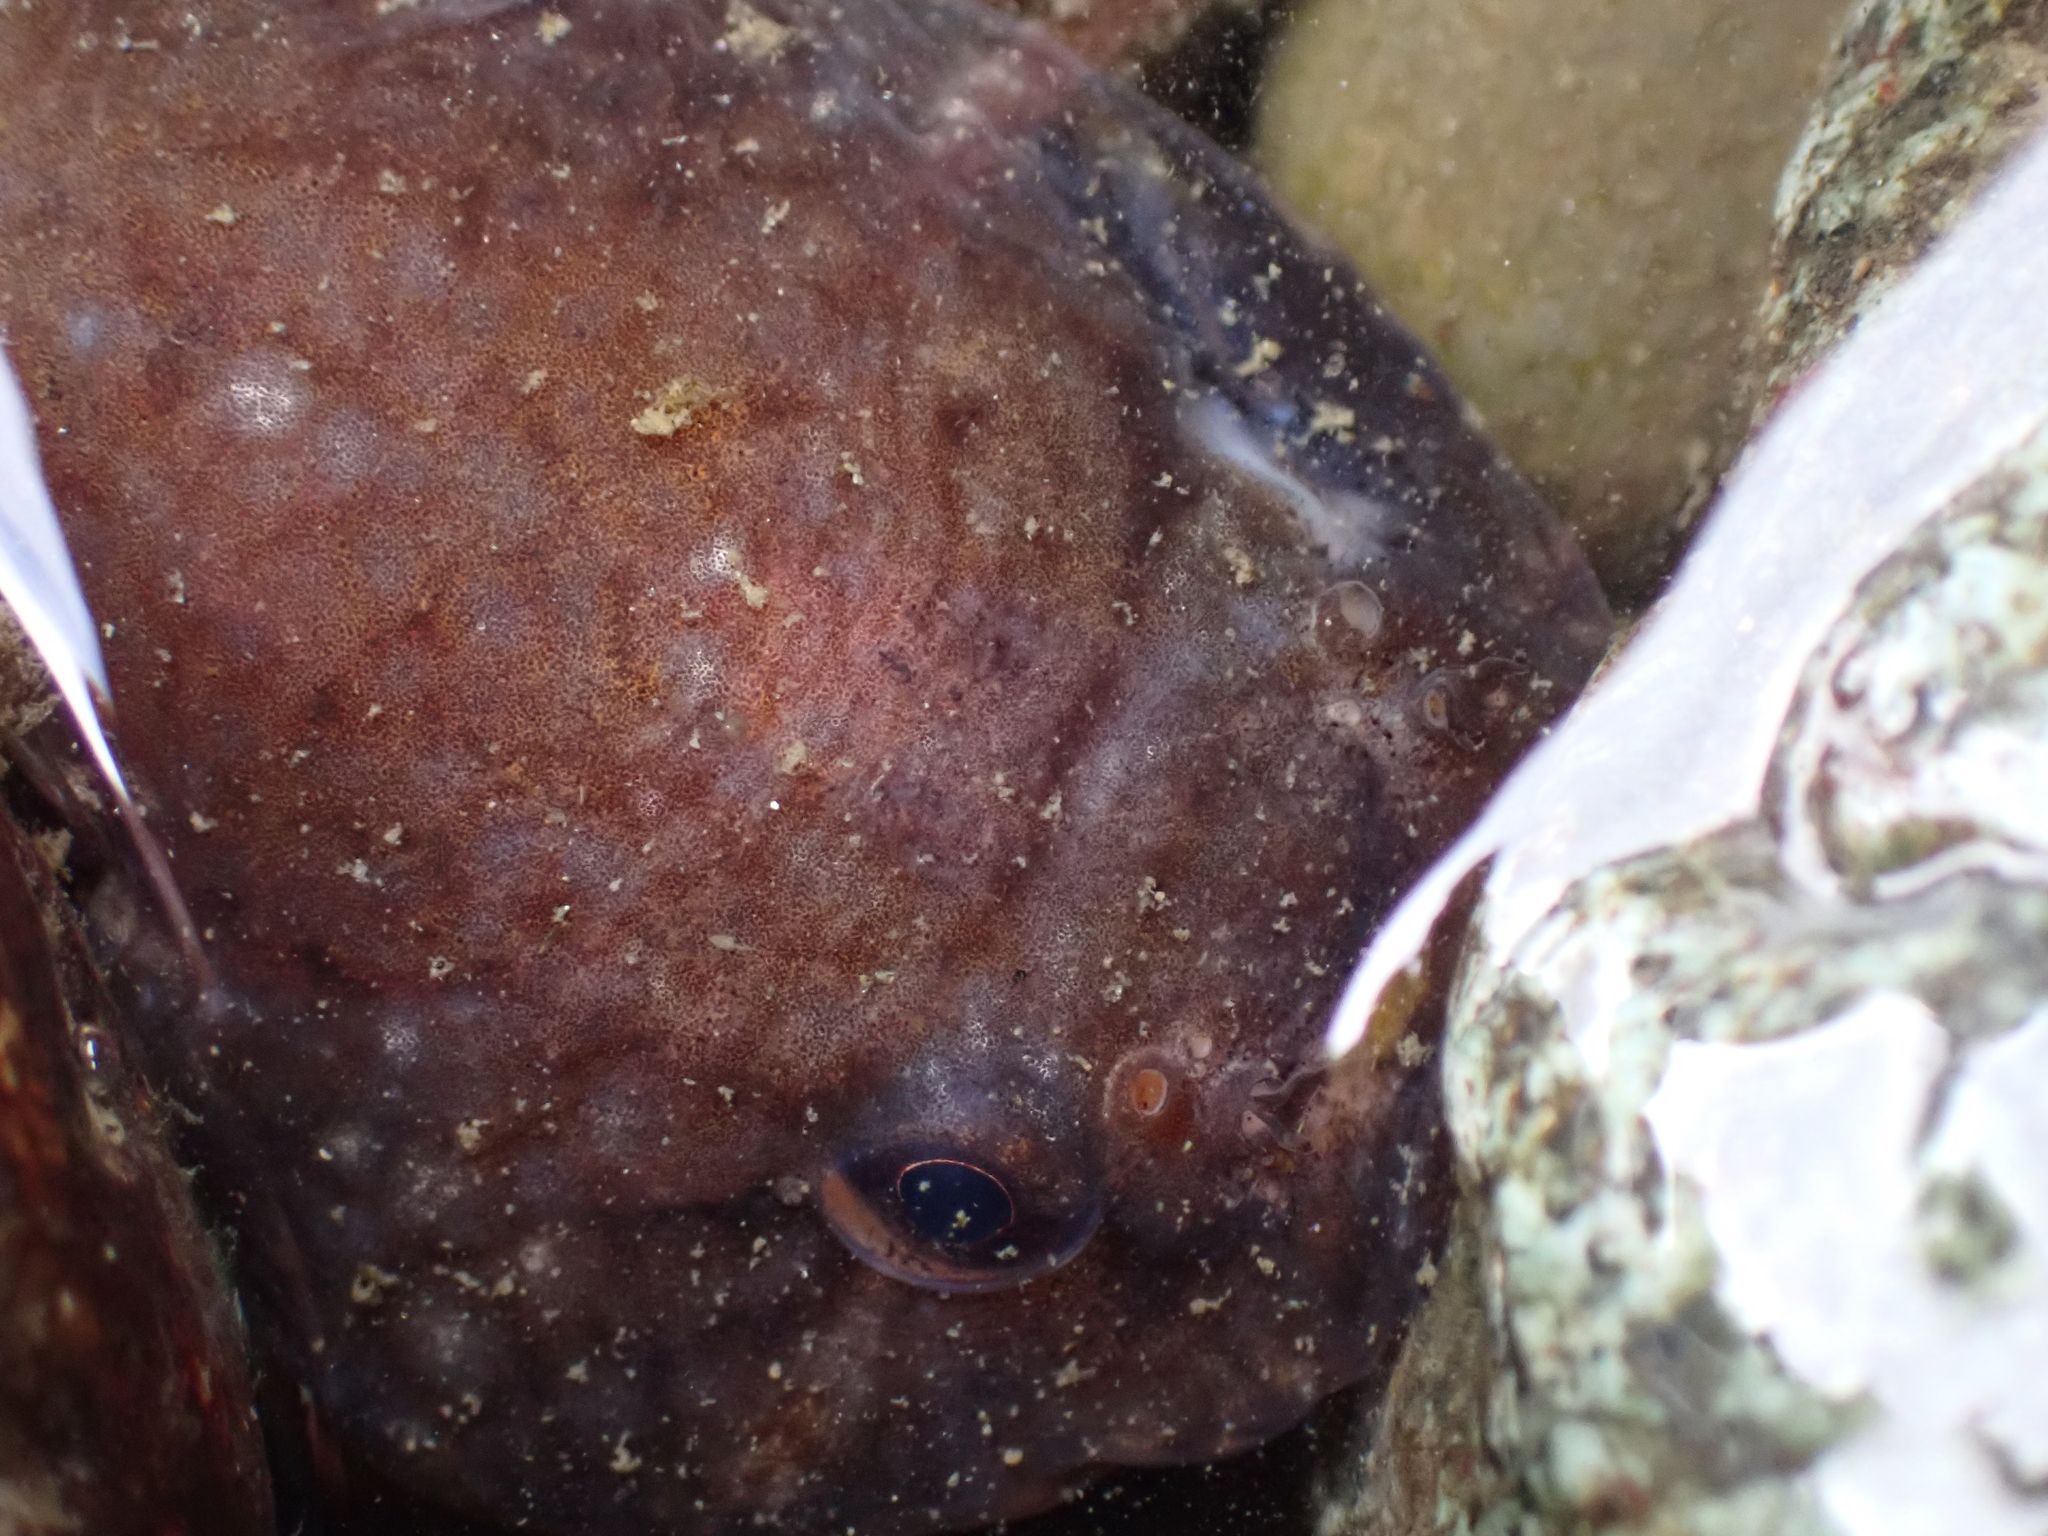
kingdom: Animalia
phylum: Chordata
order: Gobiesociformes
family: Gobiesocidae
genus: Gobiesox
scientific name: Gobiesox maeandricus
